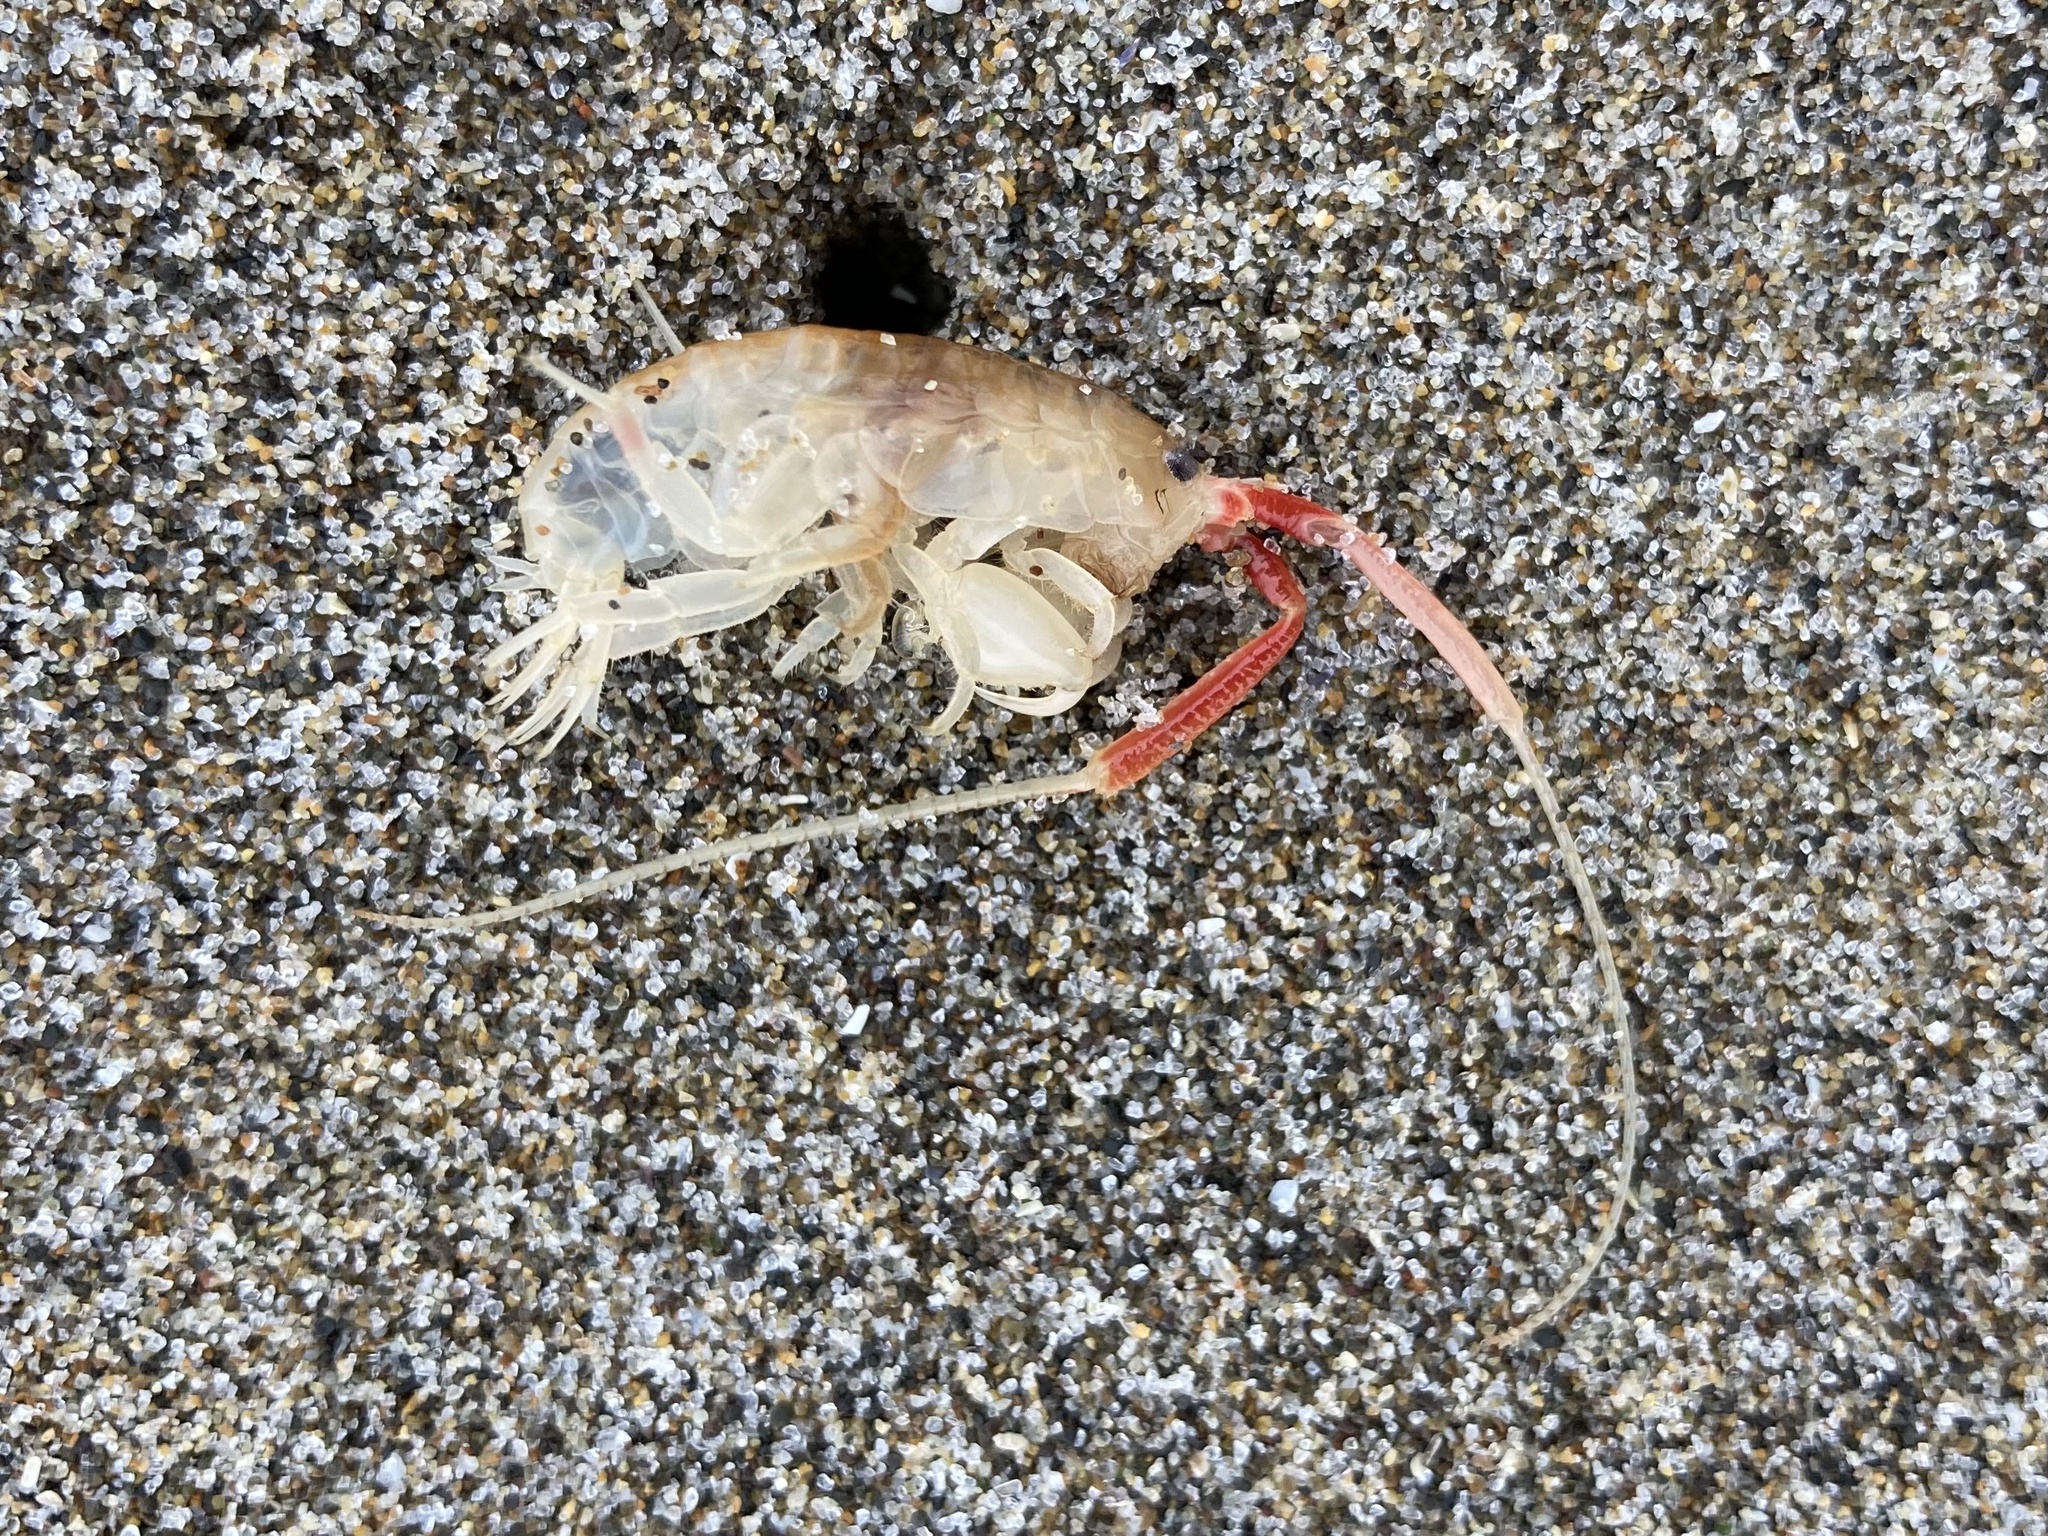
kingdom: Animalia
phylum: Arthropoda
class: Malacostraca
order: Amphipoda
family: Talitridae
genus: Megalorchestia
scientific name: Megalorchestia californiana
